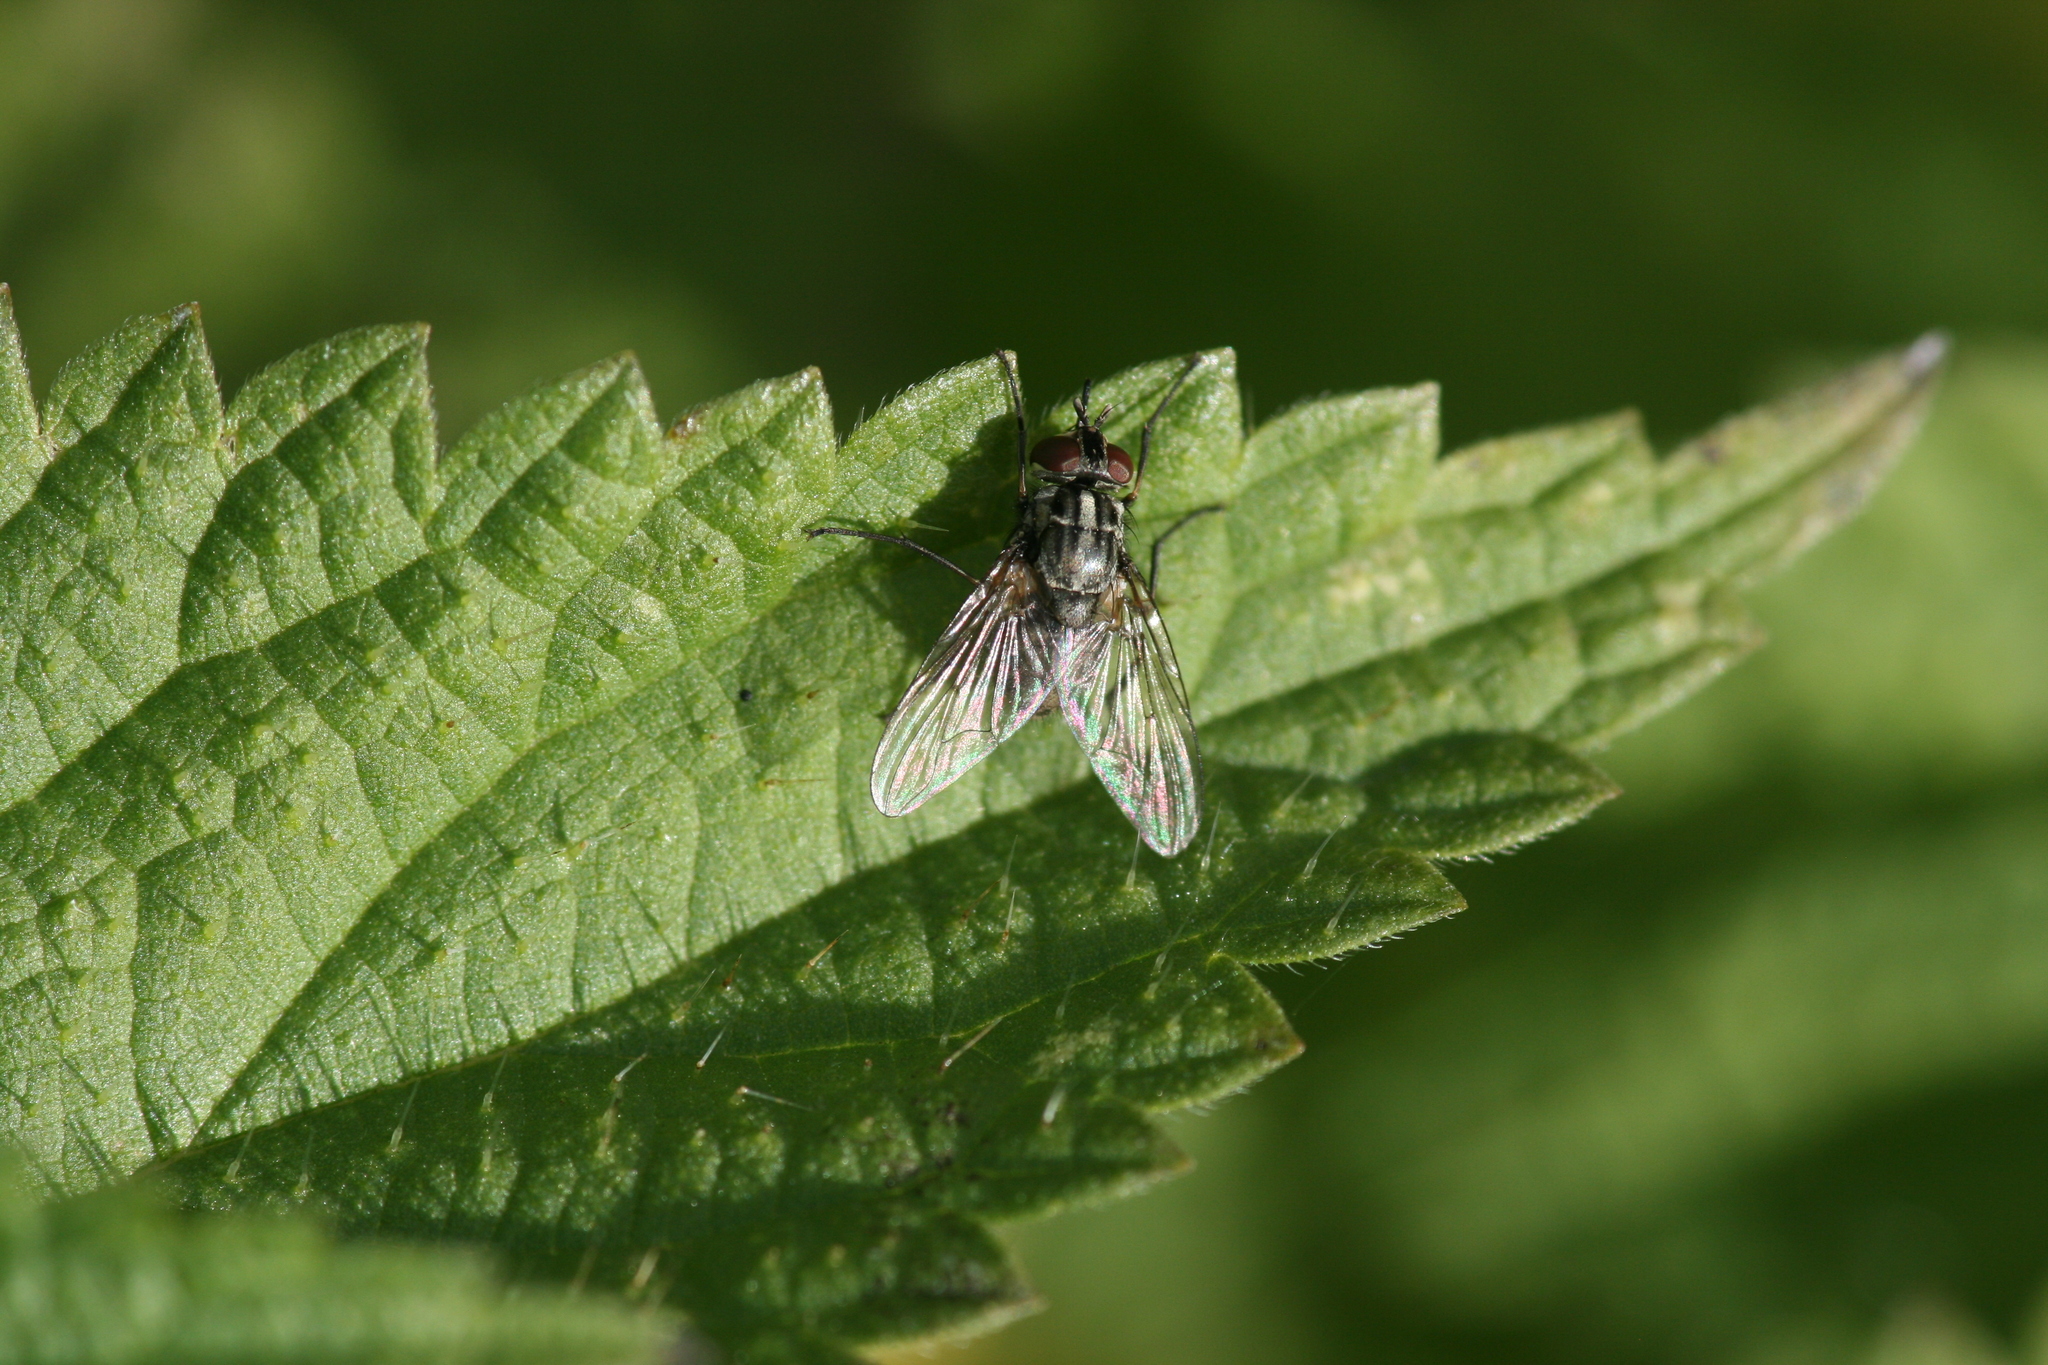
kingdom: Animalia
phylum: Arthropoda
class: Insecta
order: Diptera
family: Muscidae
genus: Stomoxys
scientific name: Stomoxys calcitrans
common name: Stable fly
